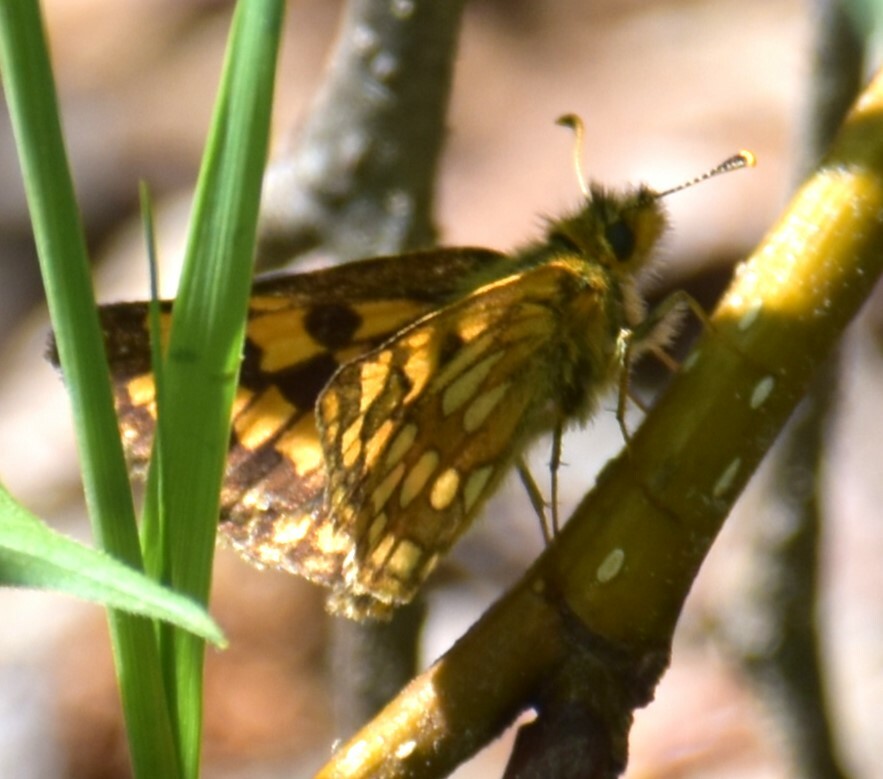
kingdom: Animalia
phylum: Arthropoda
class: Insecta
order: Lepidoptera
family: Hesperiidae
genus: Carterocephalus
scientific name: Carterocephalus skada
